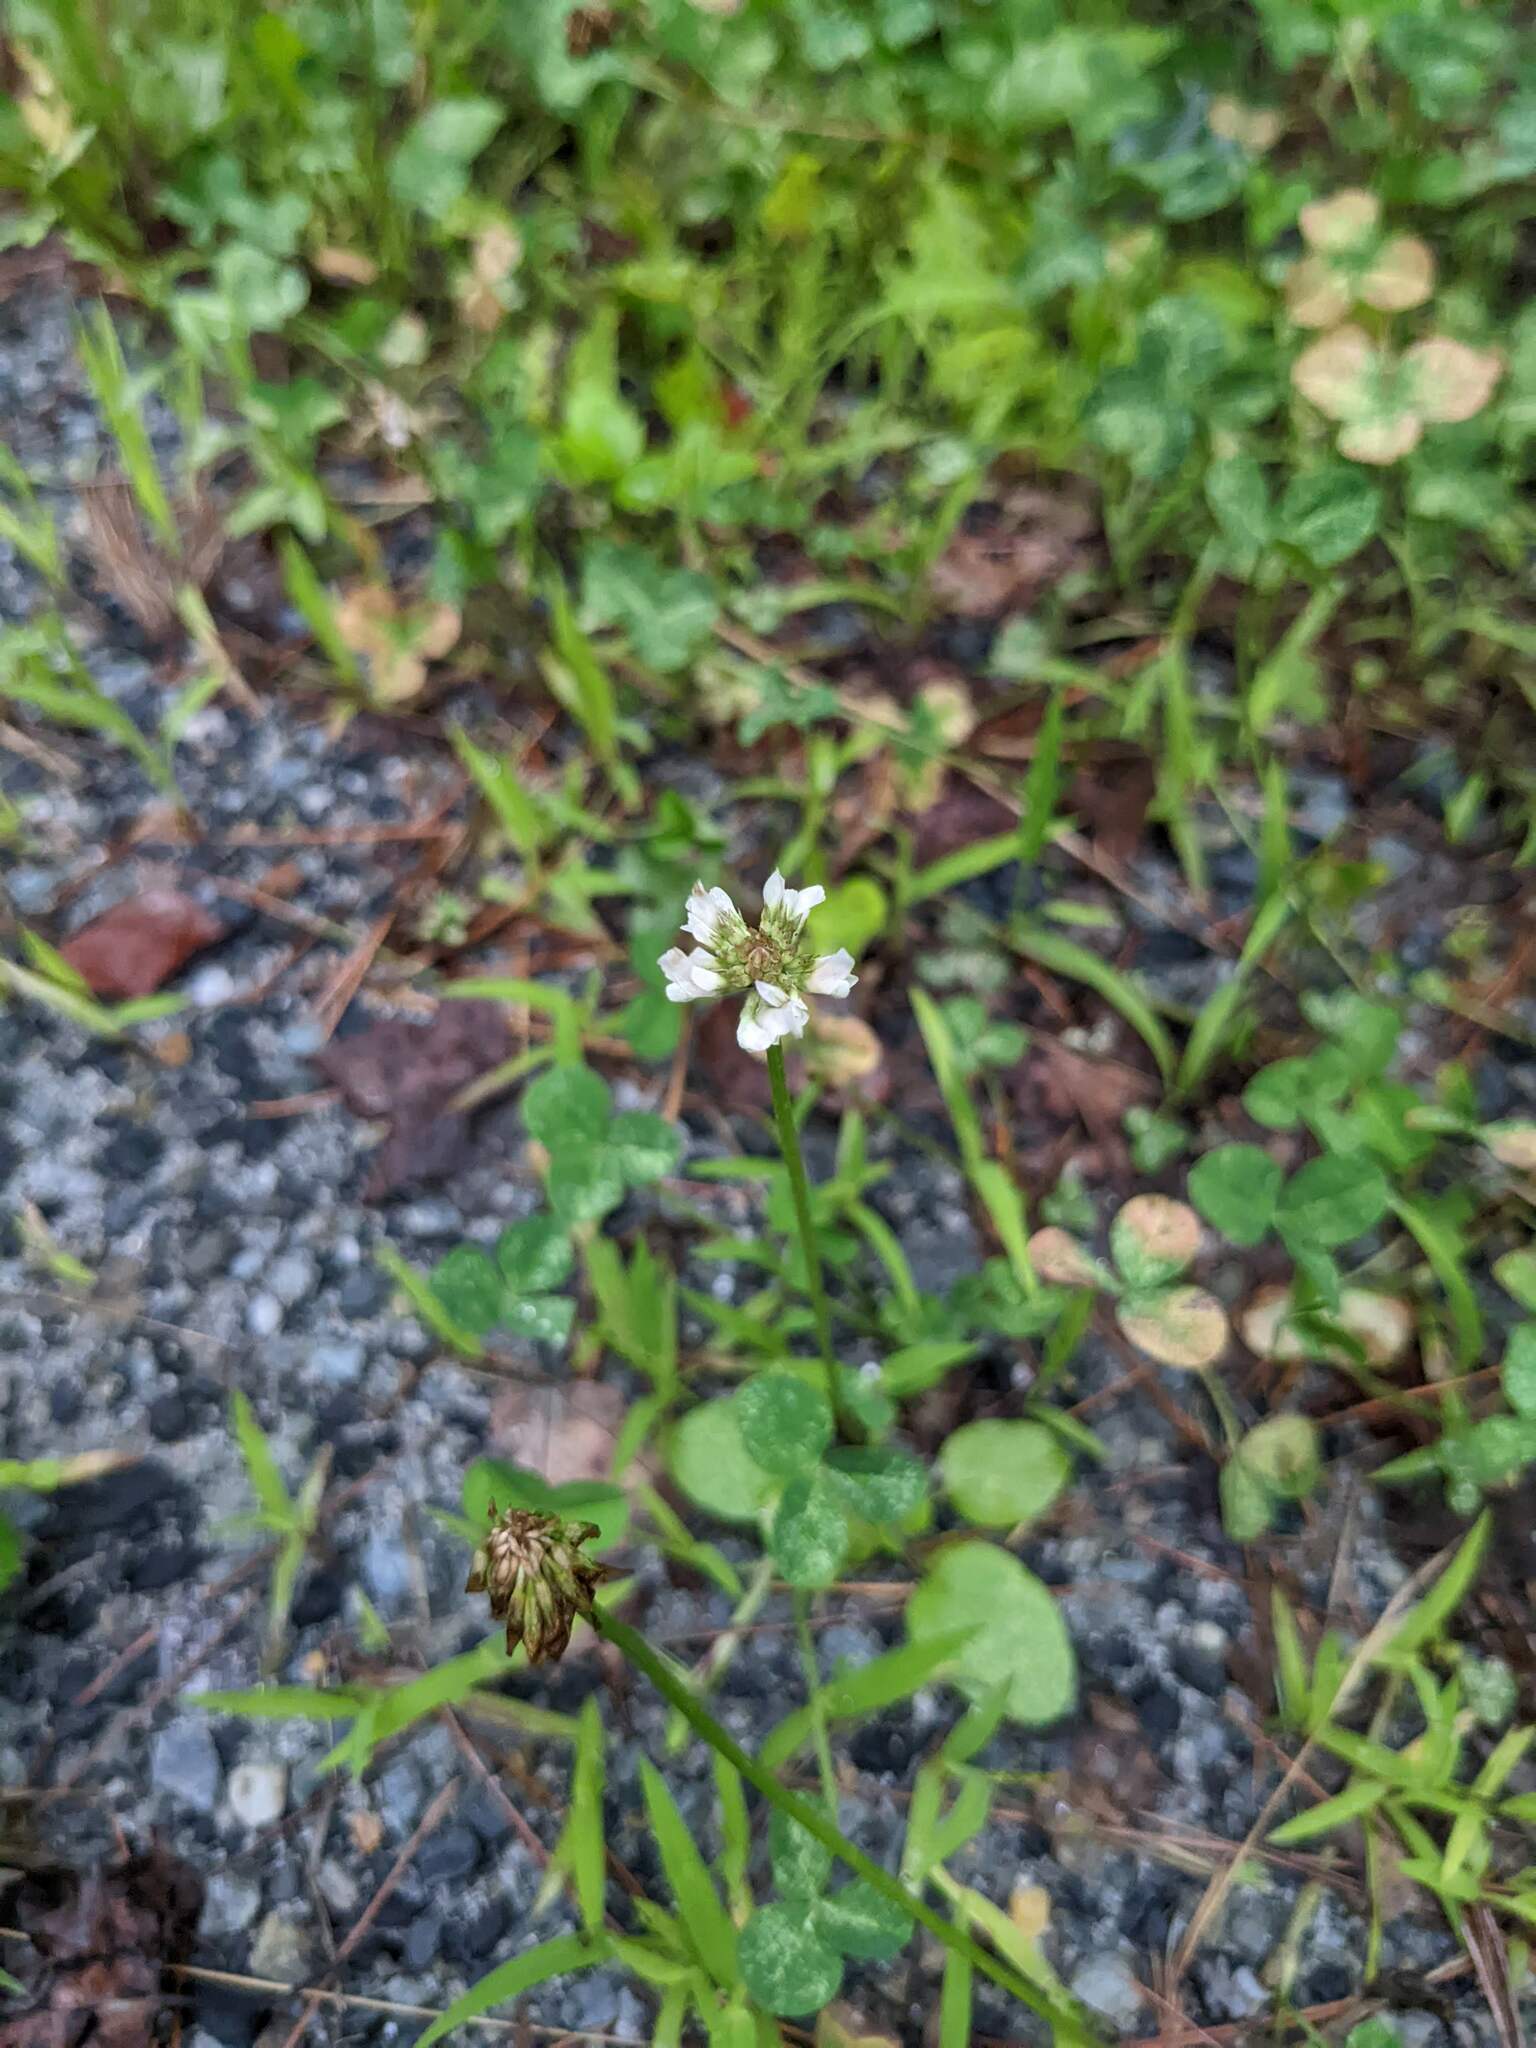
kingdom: Plantae
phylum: Tracheophyta
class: Magnoliopsida
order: Fabales
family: Fabaceae
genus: Trifolium
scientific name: Trifolium repens
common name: White clover
